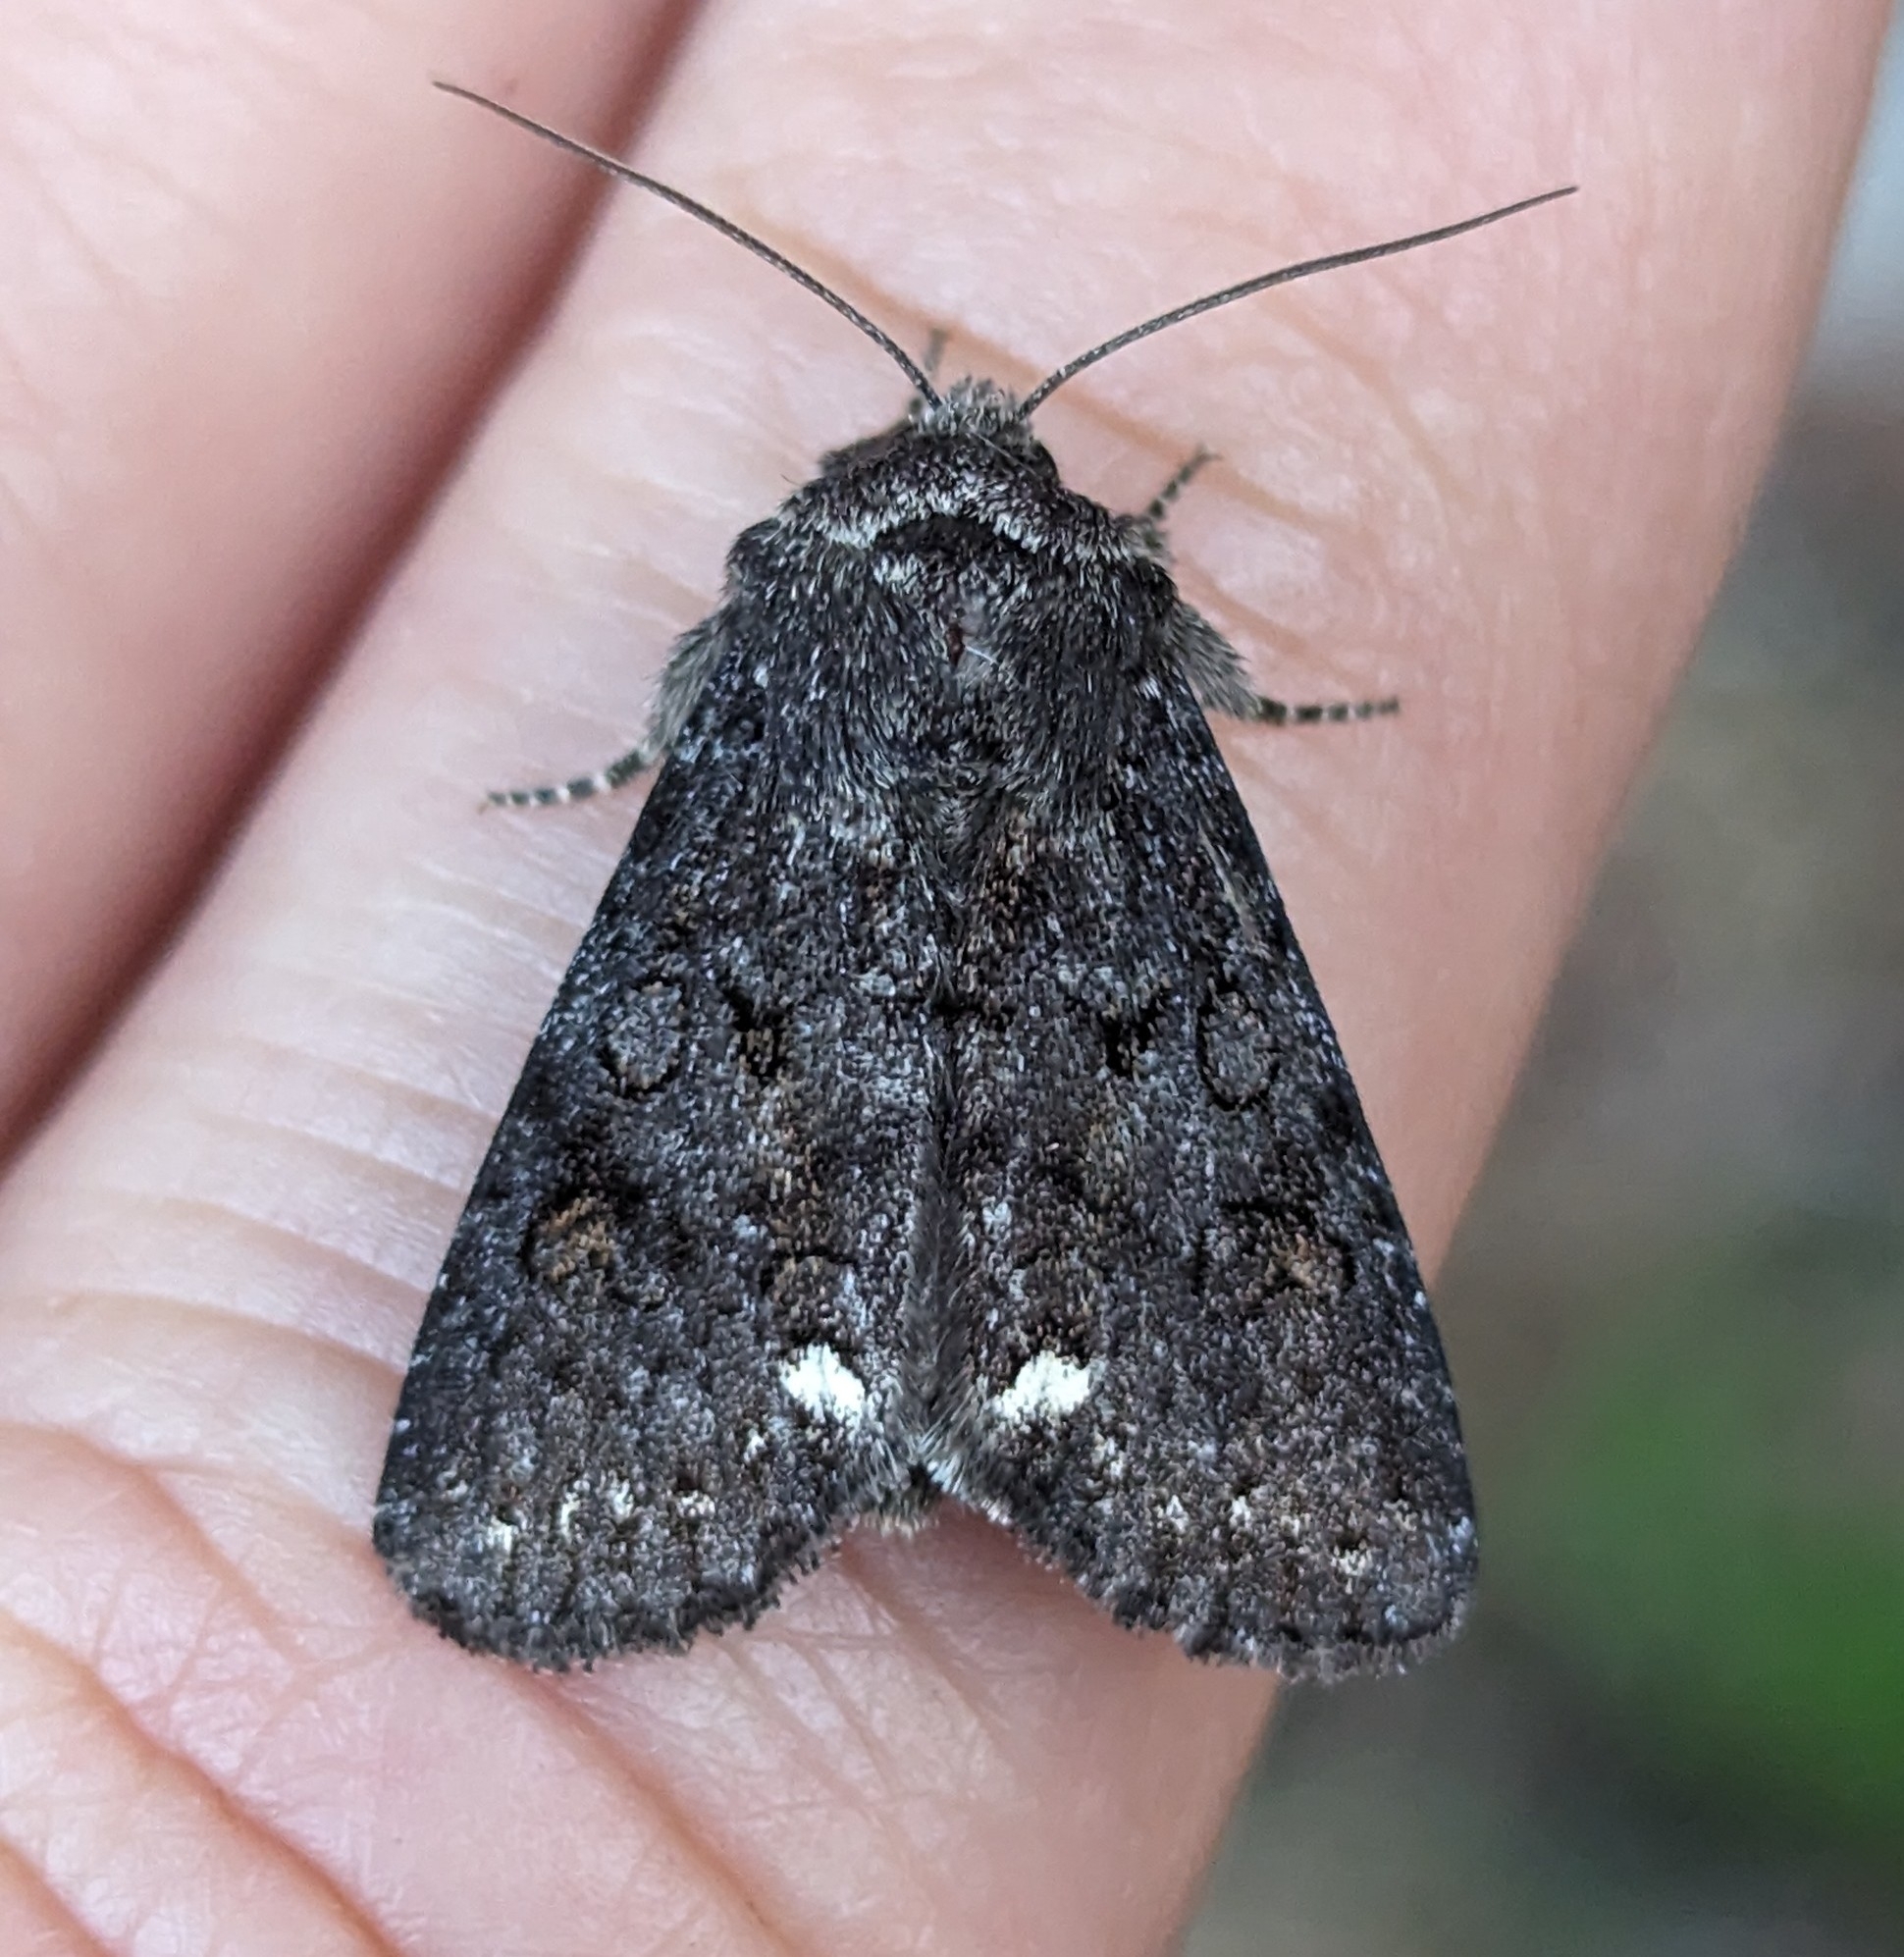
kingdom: Animalia
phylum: Arthropoda
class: Insecta
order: Lepidoptera
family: Noctuidae
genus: Melanchra
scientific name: Melanchra pulverulenta
